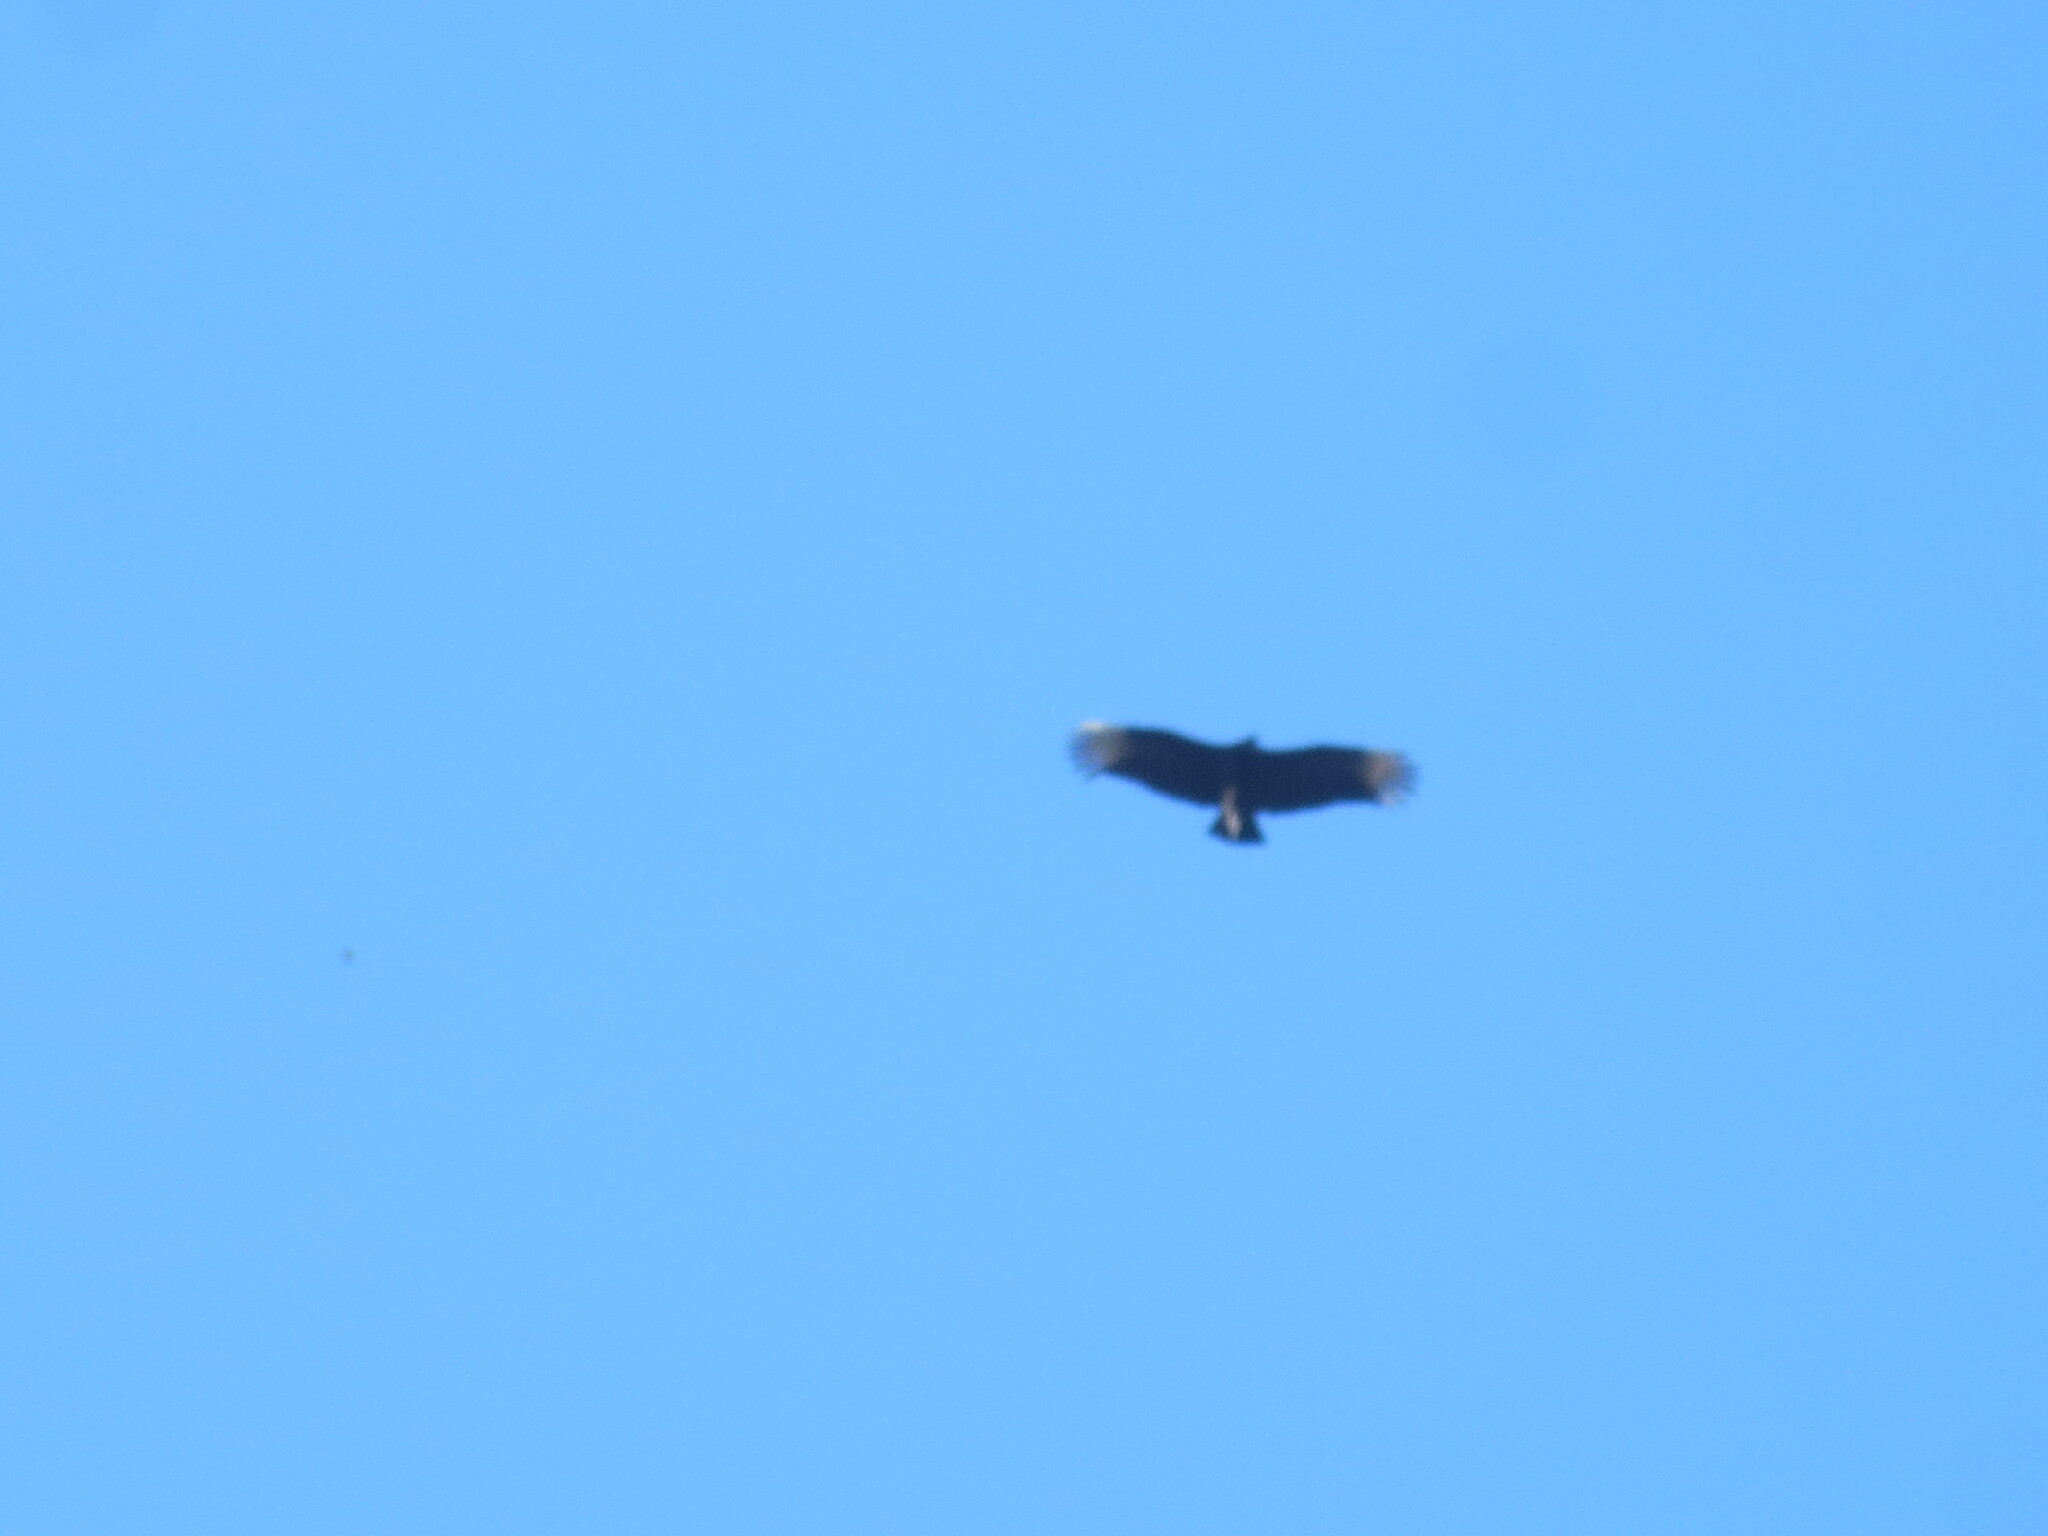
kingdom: Animalia
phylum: Chordata
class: Aves
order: Accipitriformes
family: Cathartidae
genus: Coragyps
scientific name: Coragyps atratus
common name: Black vulture
